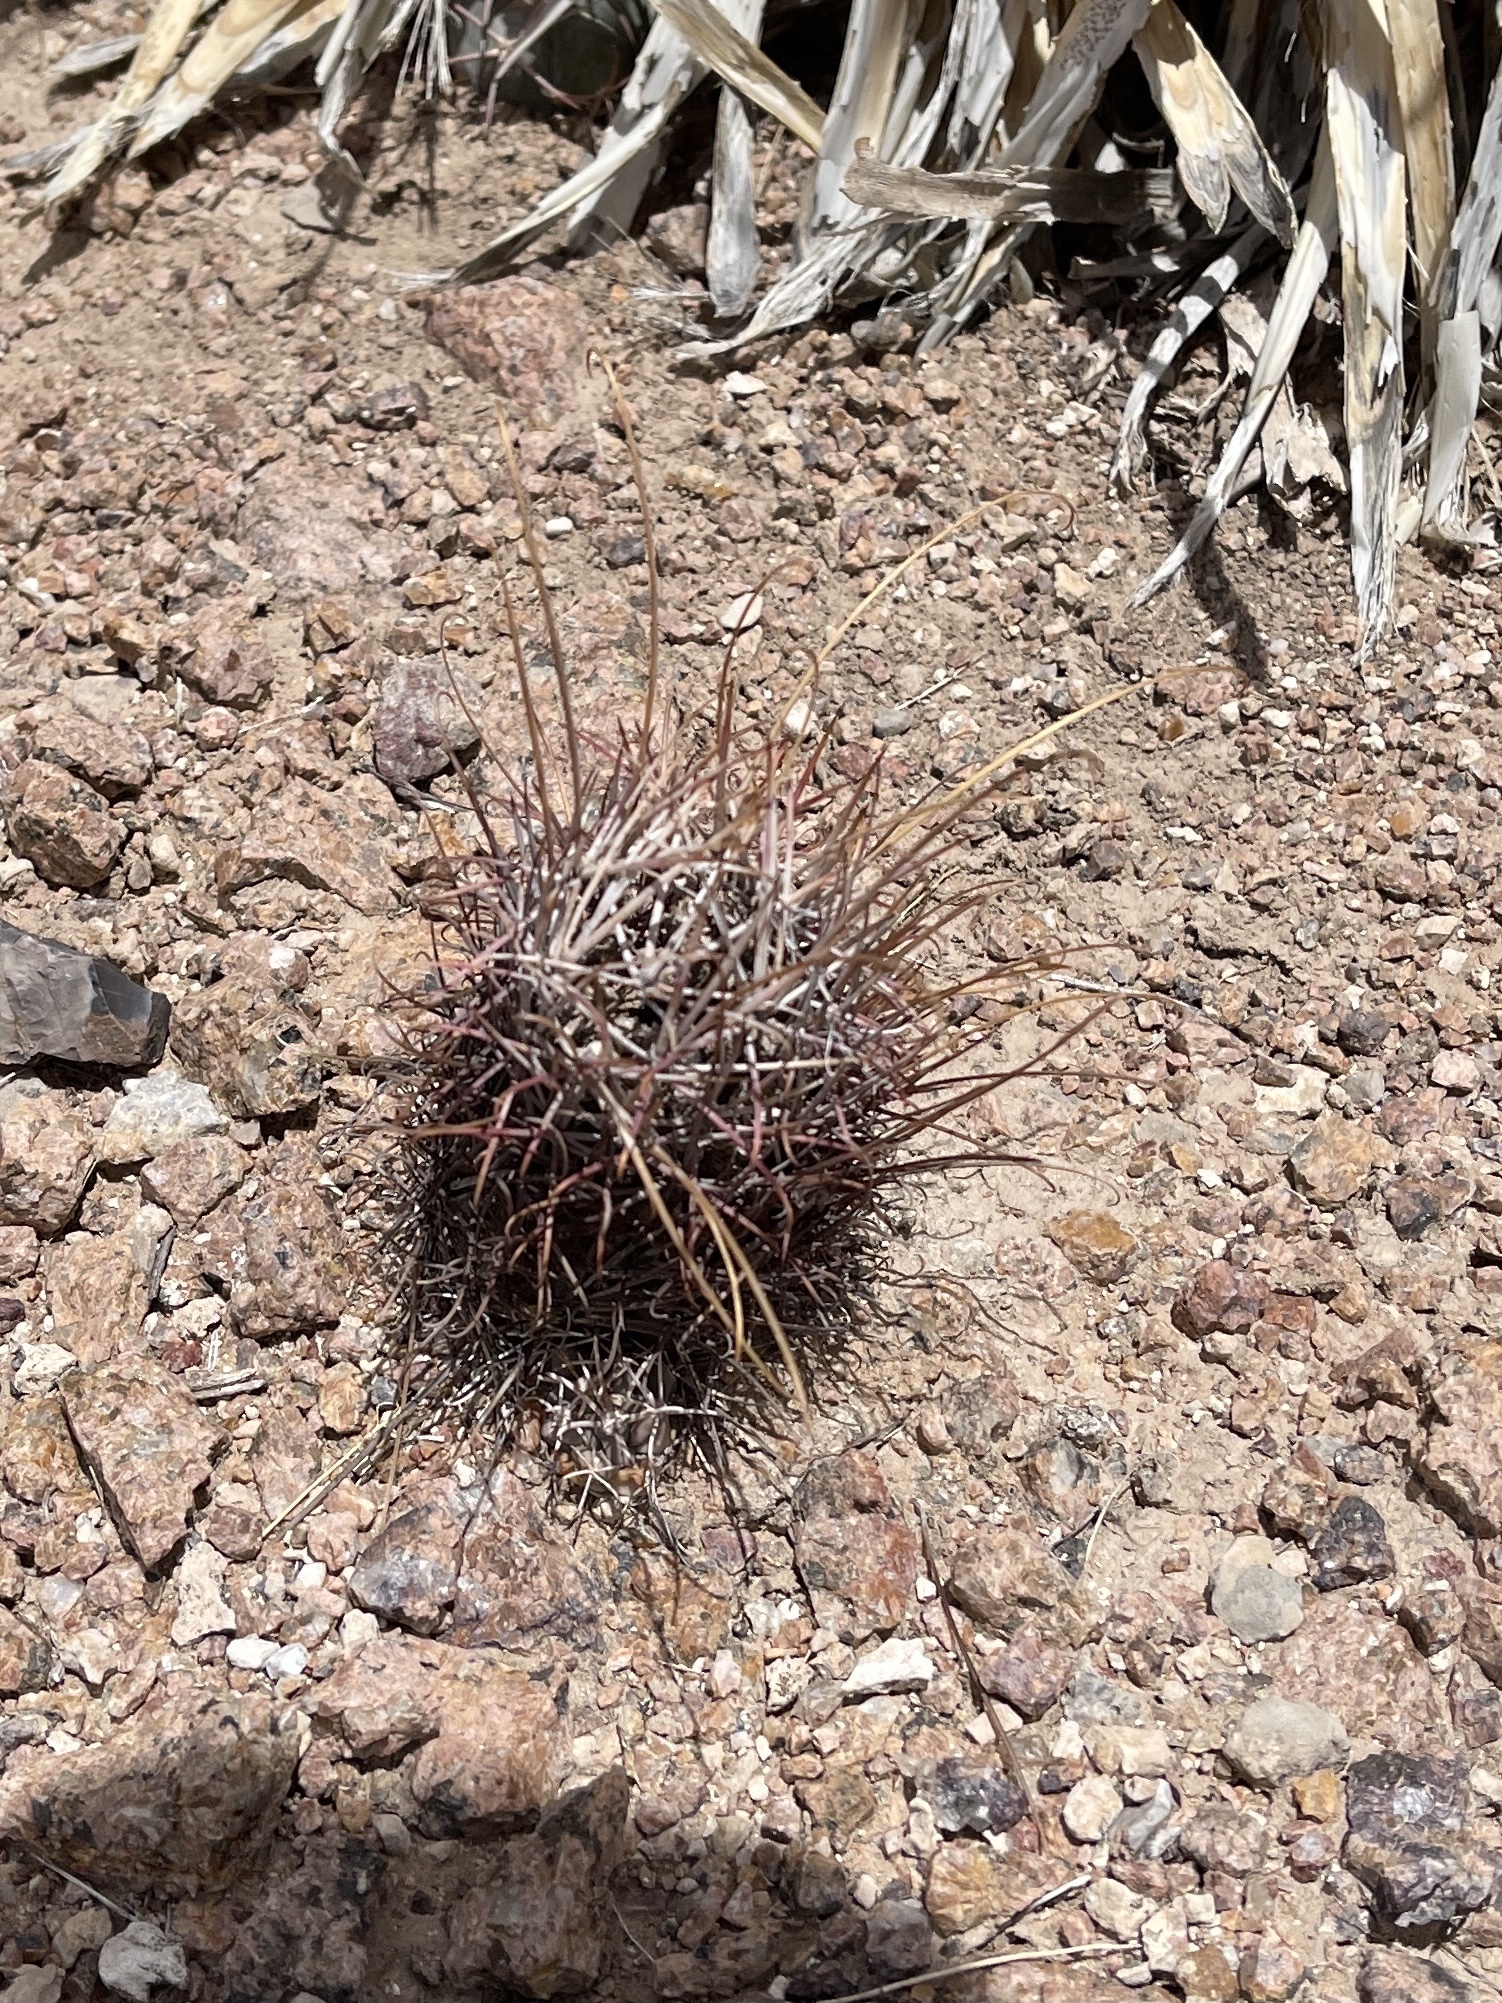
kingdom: Plantae
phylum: Tracheophyta
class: Magnoliopsida
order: Caryophyllales
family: Cactaceae
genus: Ferocactus
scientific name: Ferocactus uncinatus
